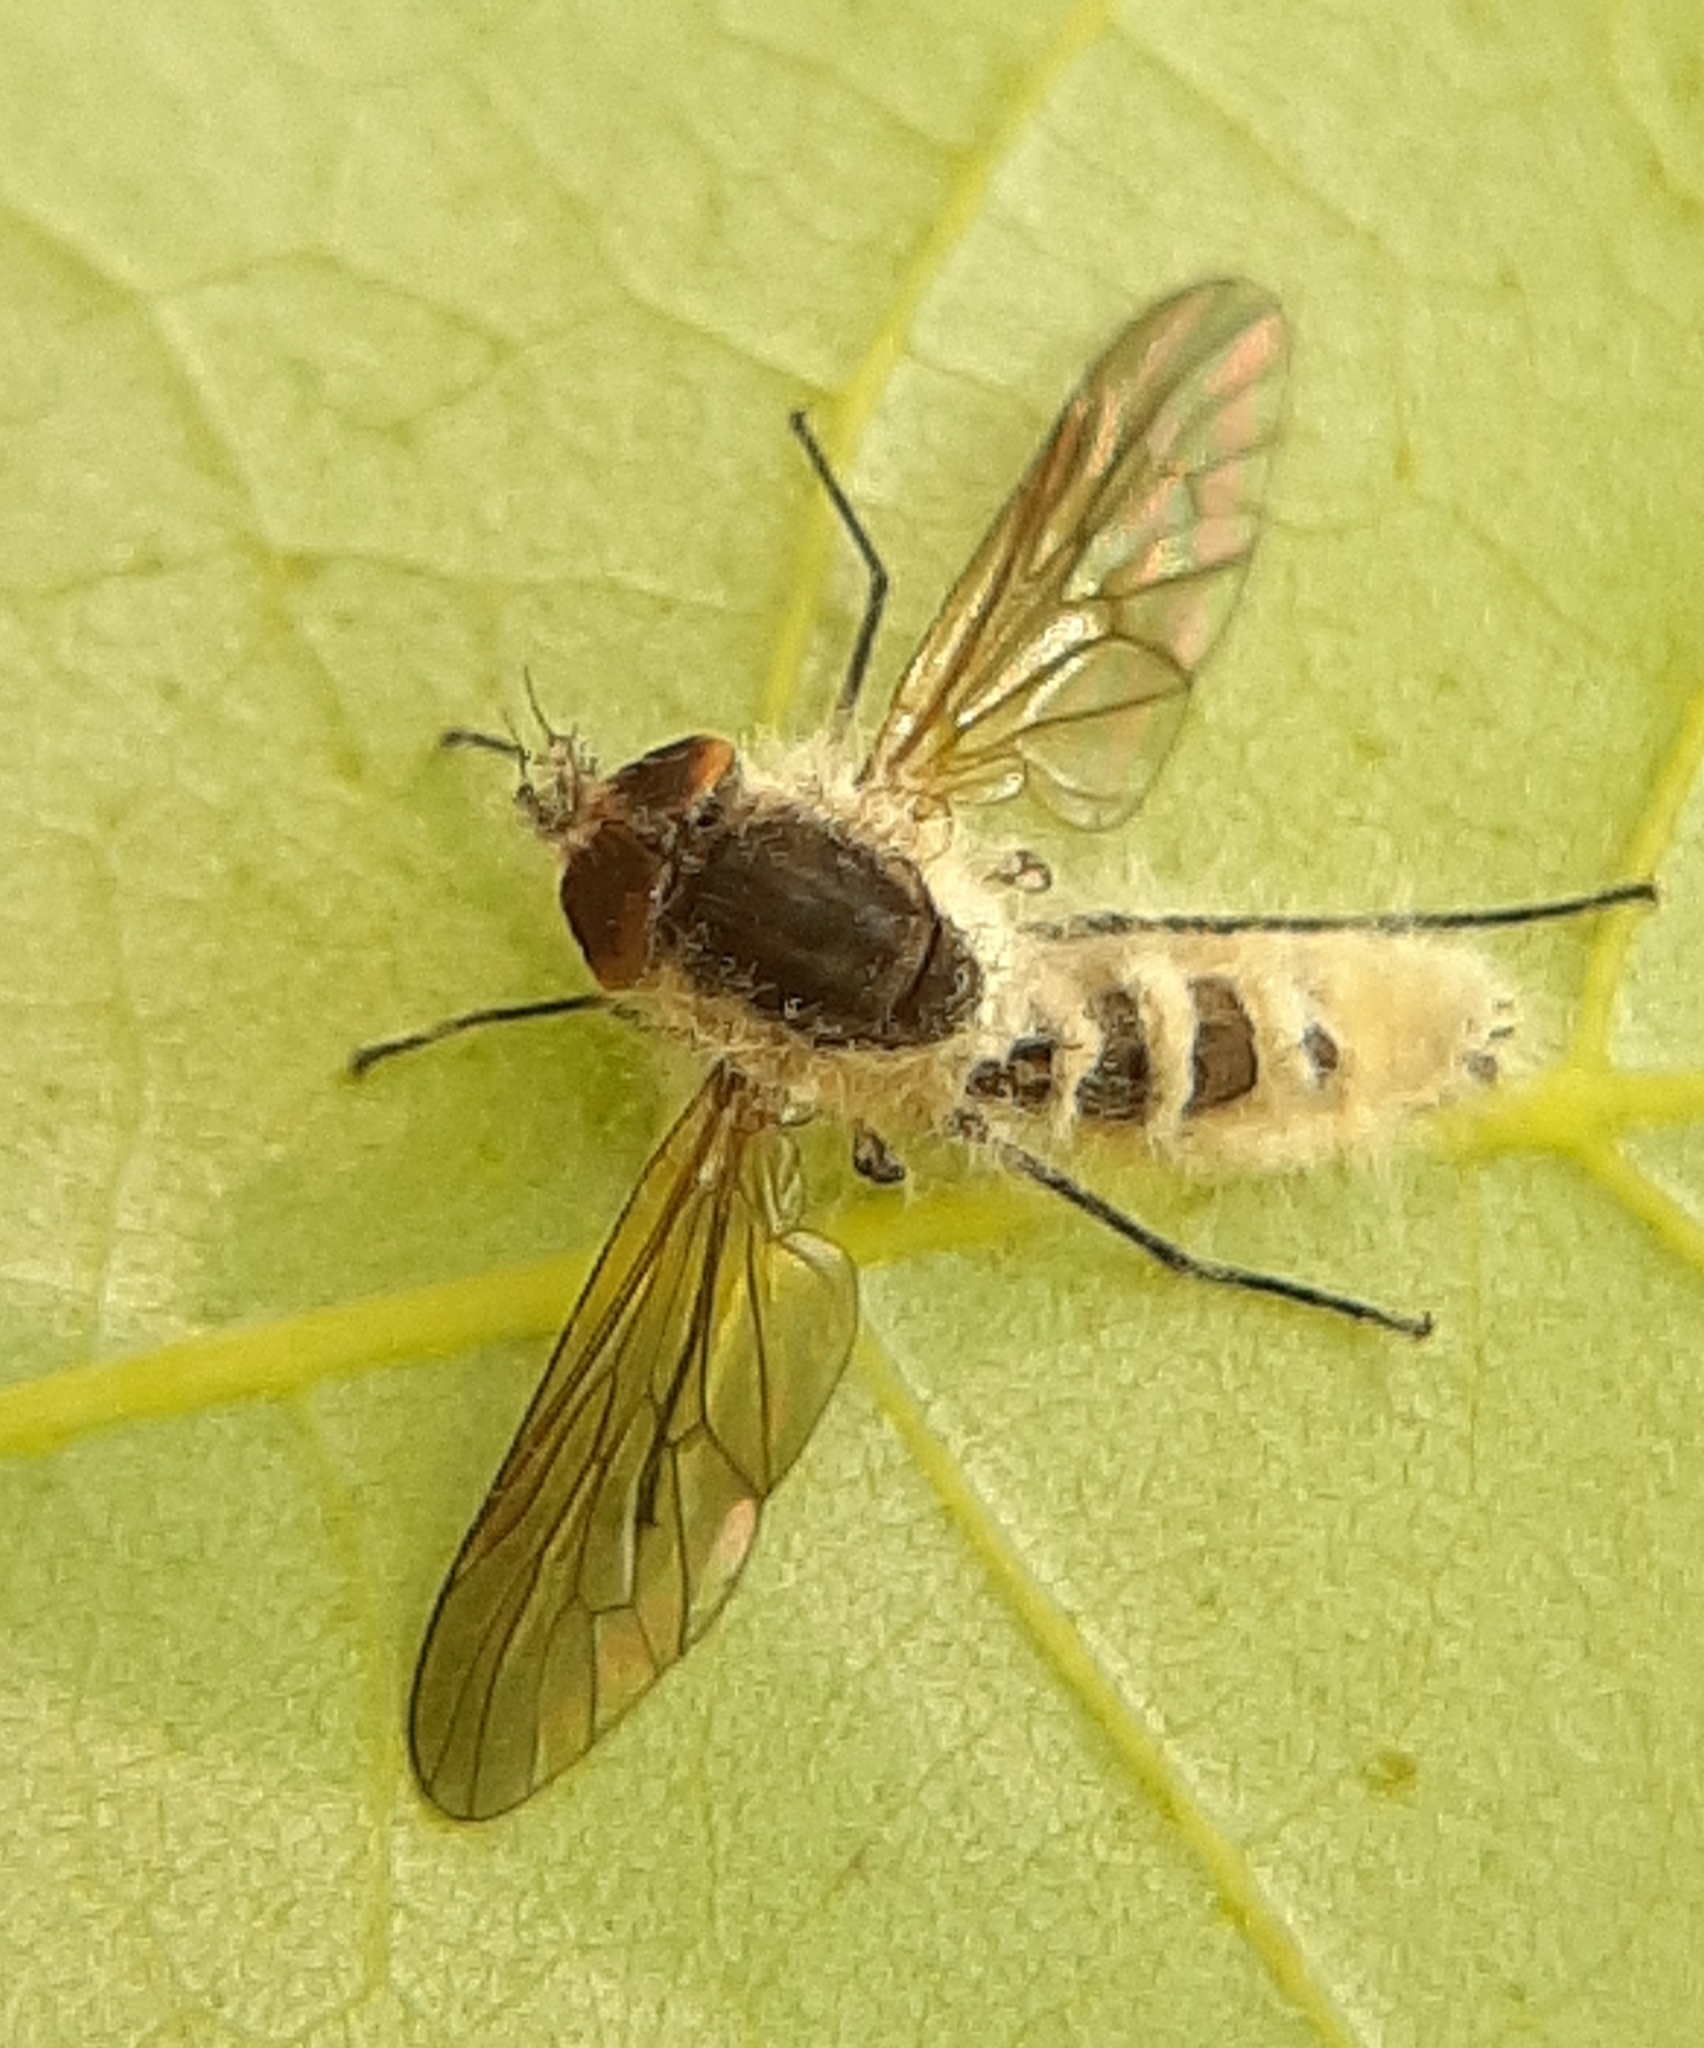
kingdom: Fungi
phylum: Entomophthoromycota
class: Entomophthoromycetes
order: Entomophthorales
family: Entomophthoraceae
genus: Furia
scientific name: Furia ithacensis
